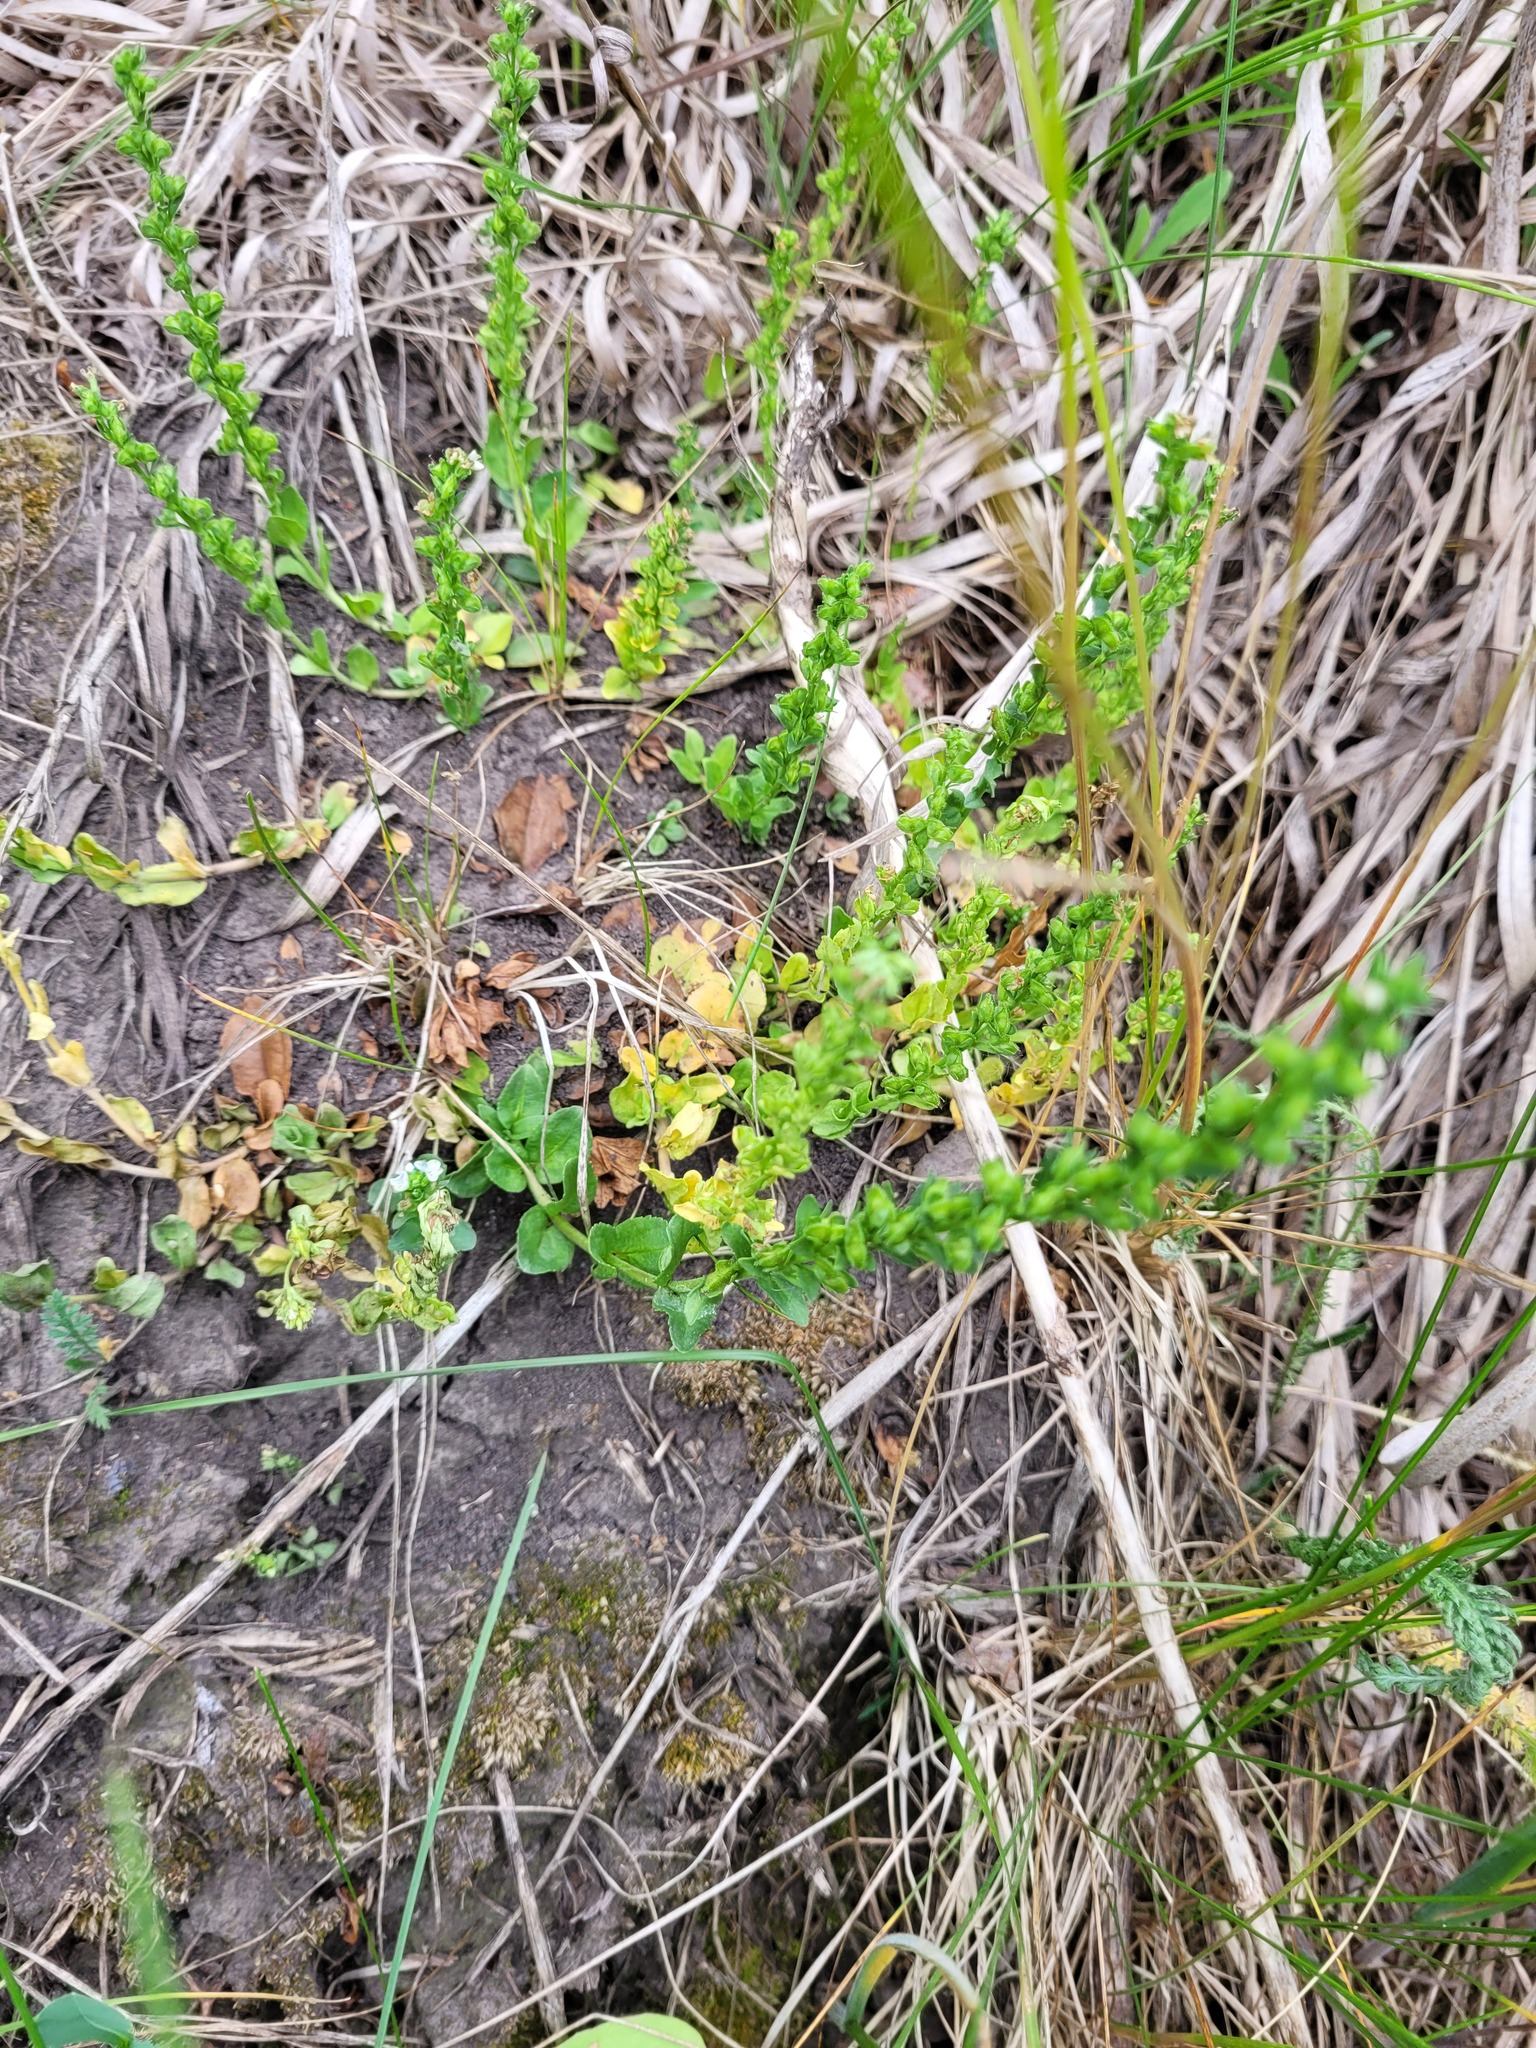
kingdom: Plantae
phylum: Tracheophyta
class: Magnoliopsida
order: Lamiales
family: Plantaginaceae
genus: Veronica
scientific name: Veronica serpyllifolia
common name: Thyme-leaved speedwell
